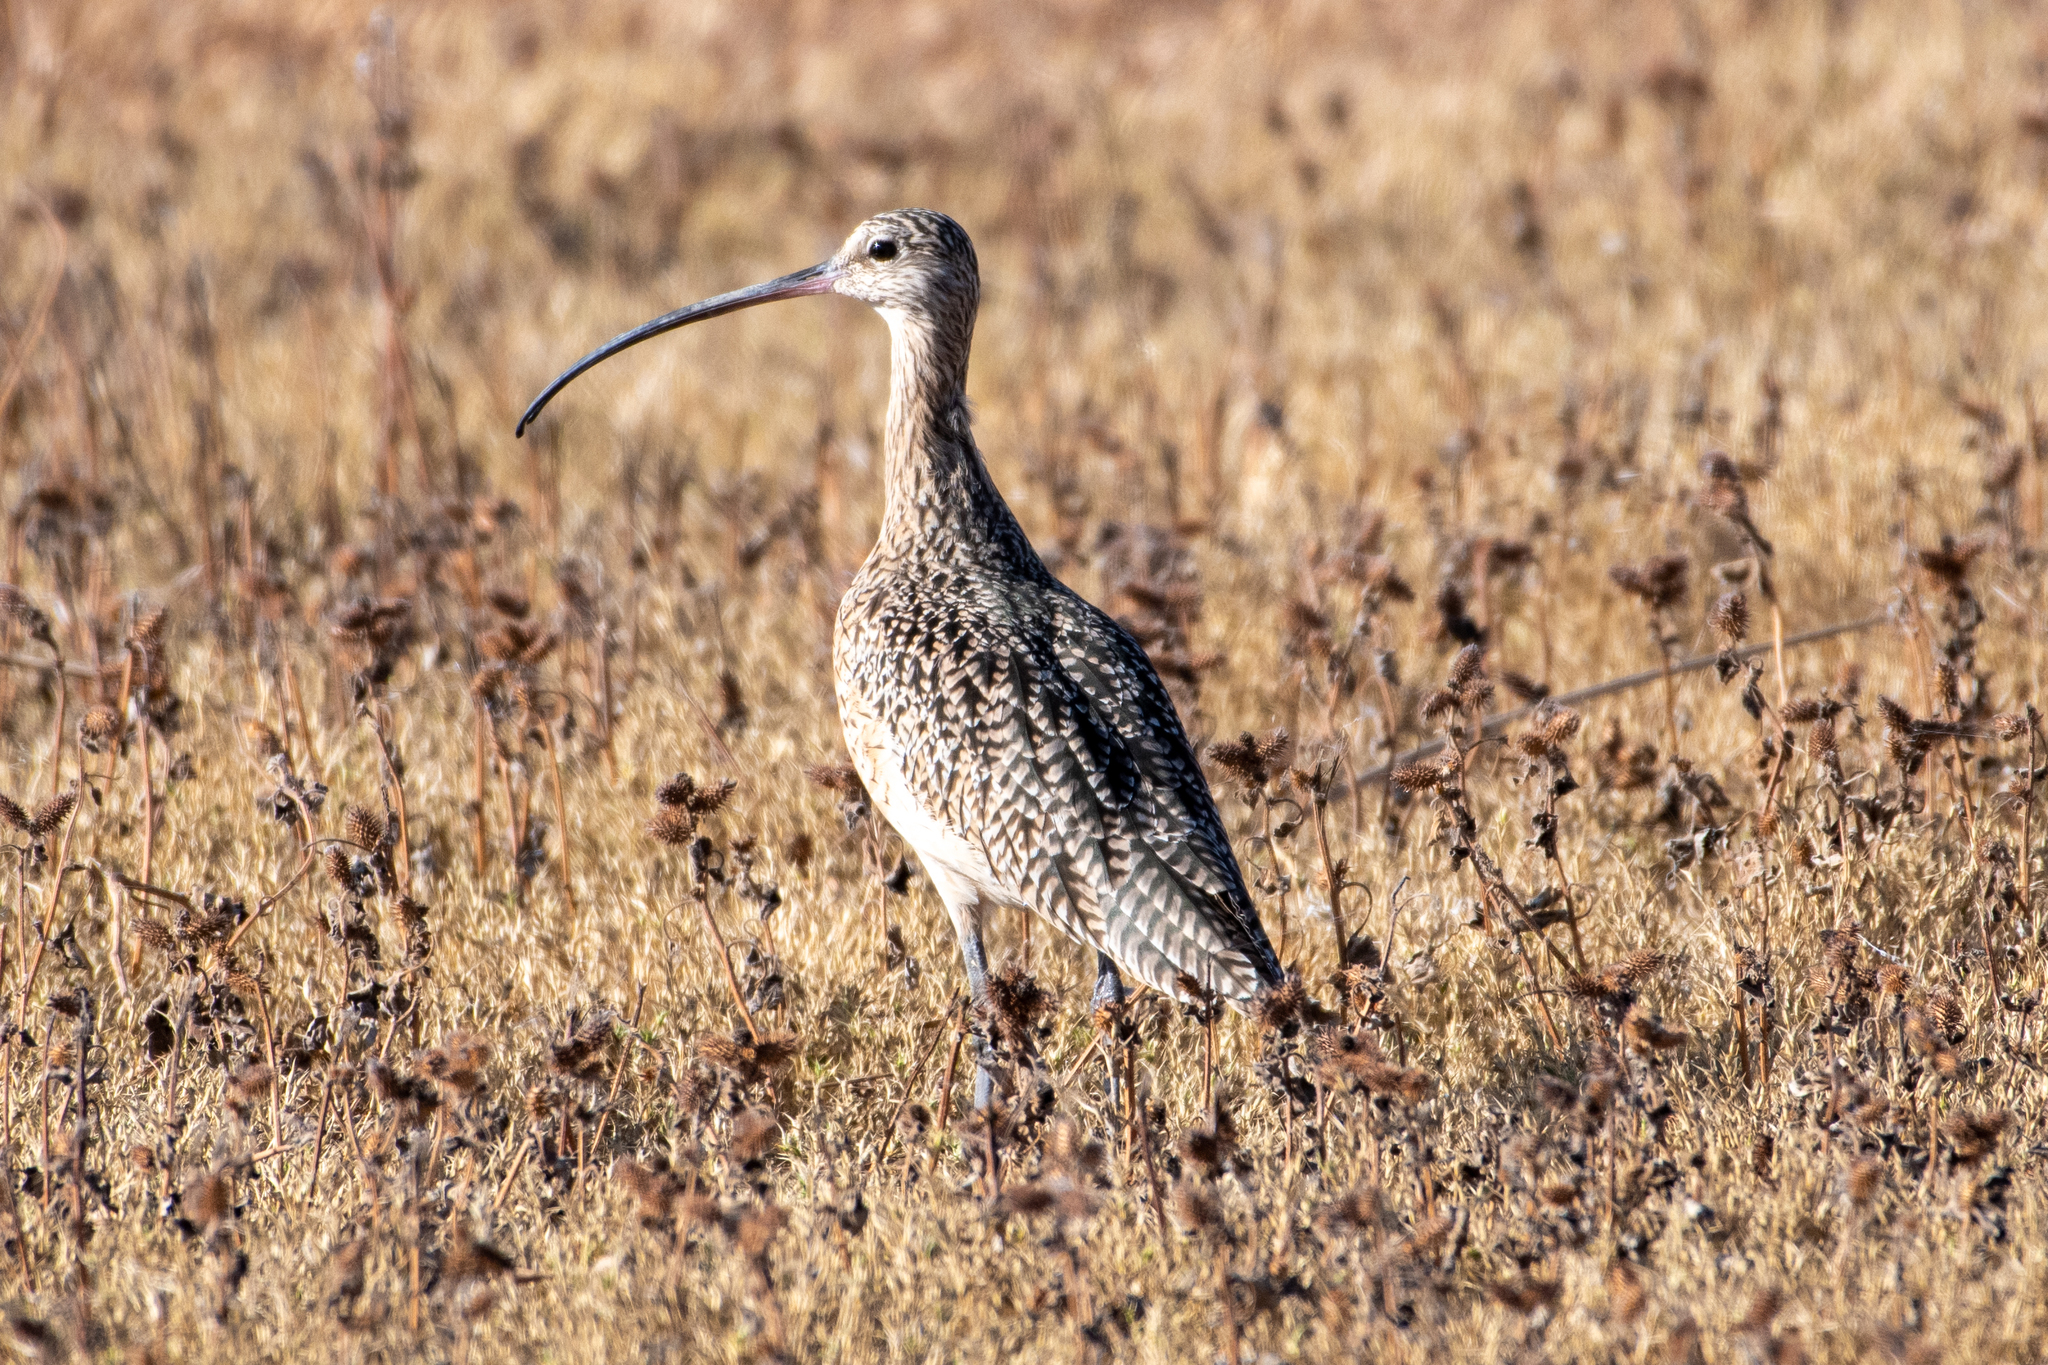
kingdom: Animalia
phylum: Chordata
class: Aves
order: Charadriiformes
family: Scolopacidae
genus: Numenius
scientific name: Numenius americanus
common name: Long-billed curlew
